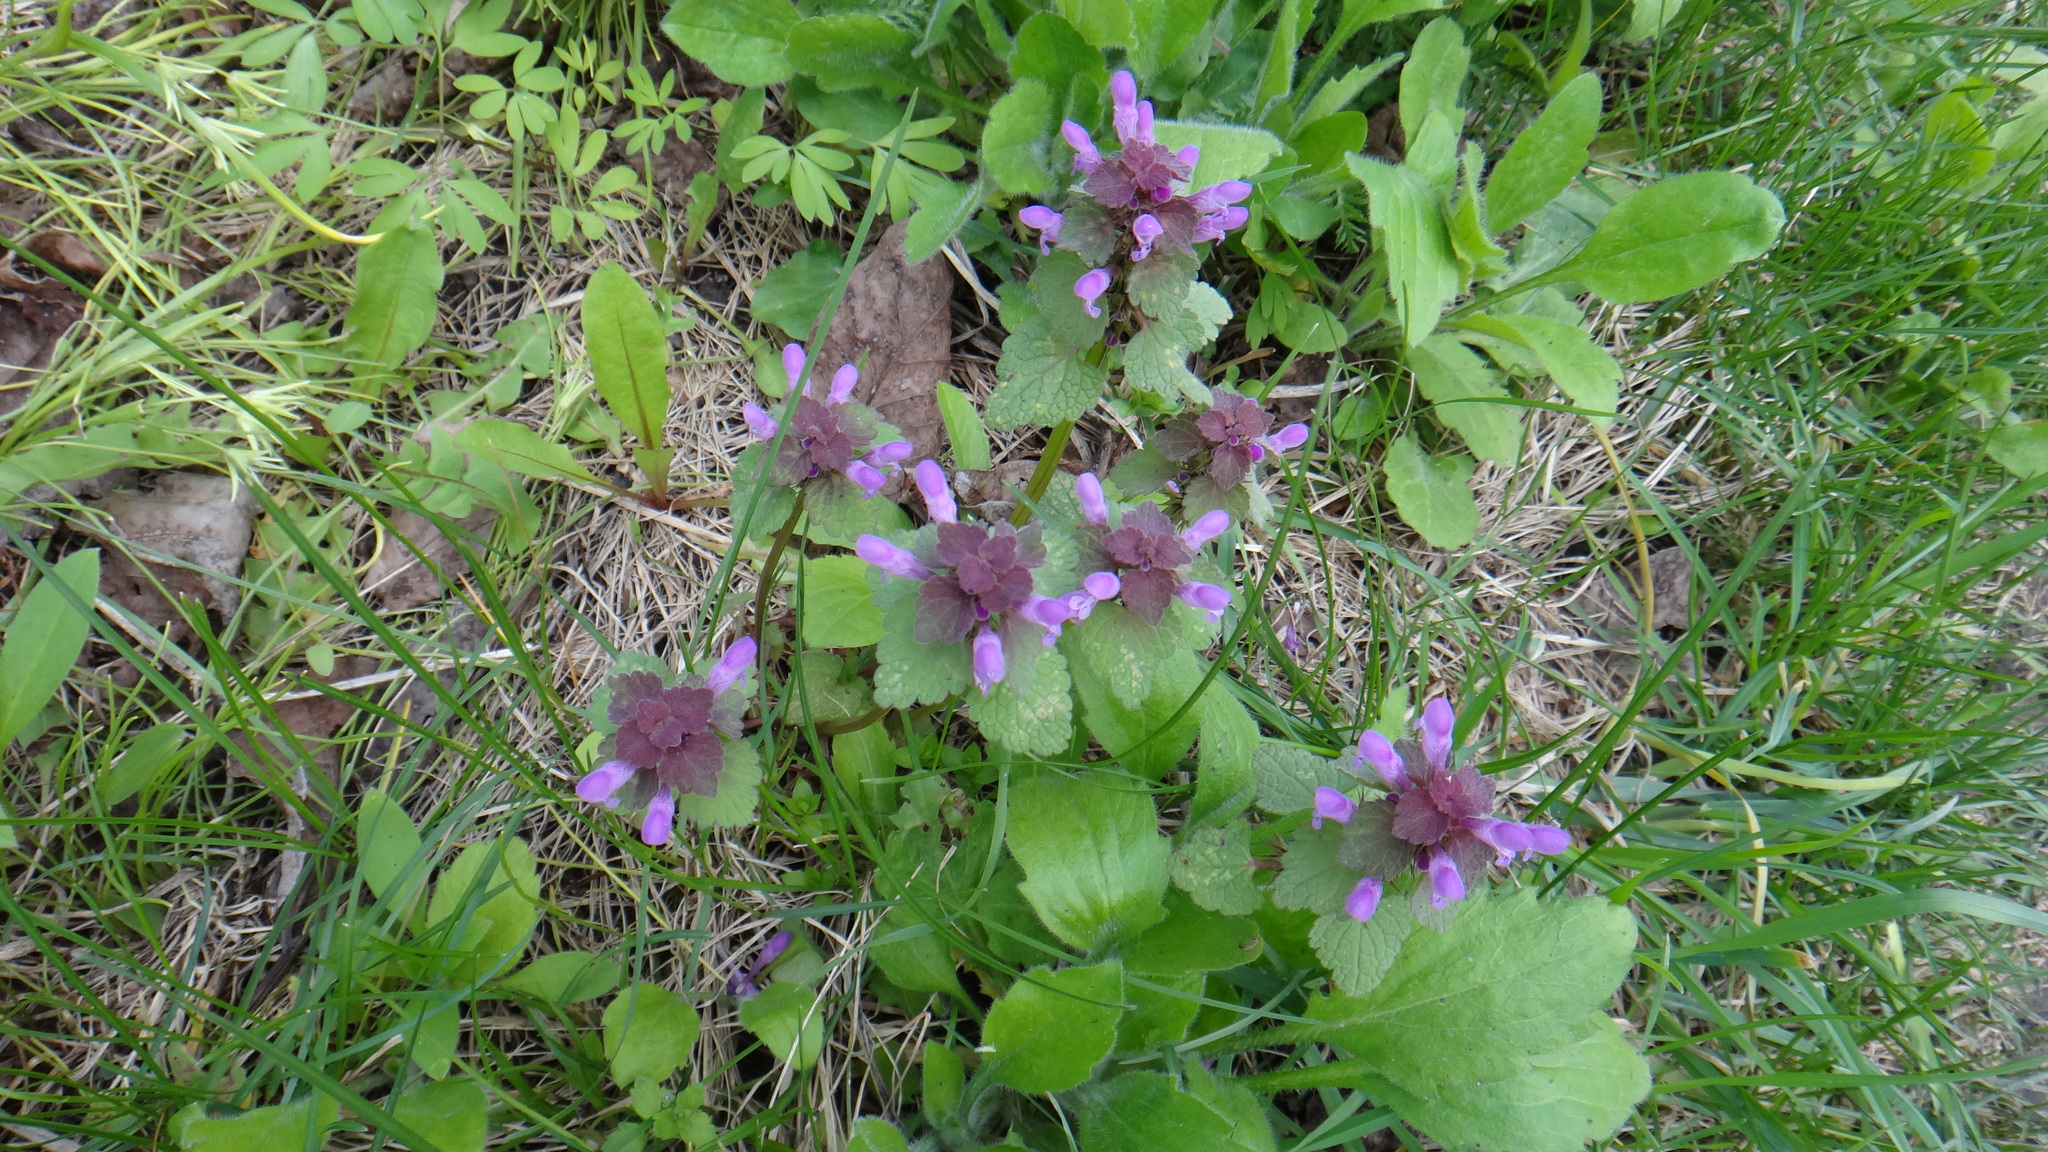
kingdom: Plantae
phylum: Tracheophyta
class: Magnoliopsida
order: Lamiales
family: Lamiaceae
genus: Lamium
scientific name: Lamium purpureum
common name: Red dead-nettle
